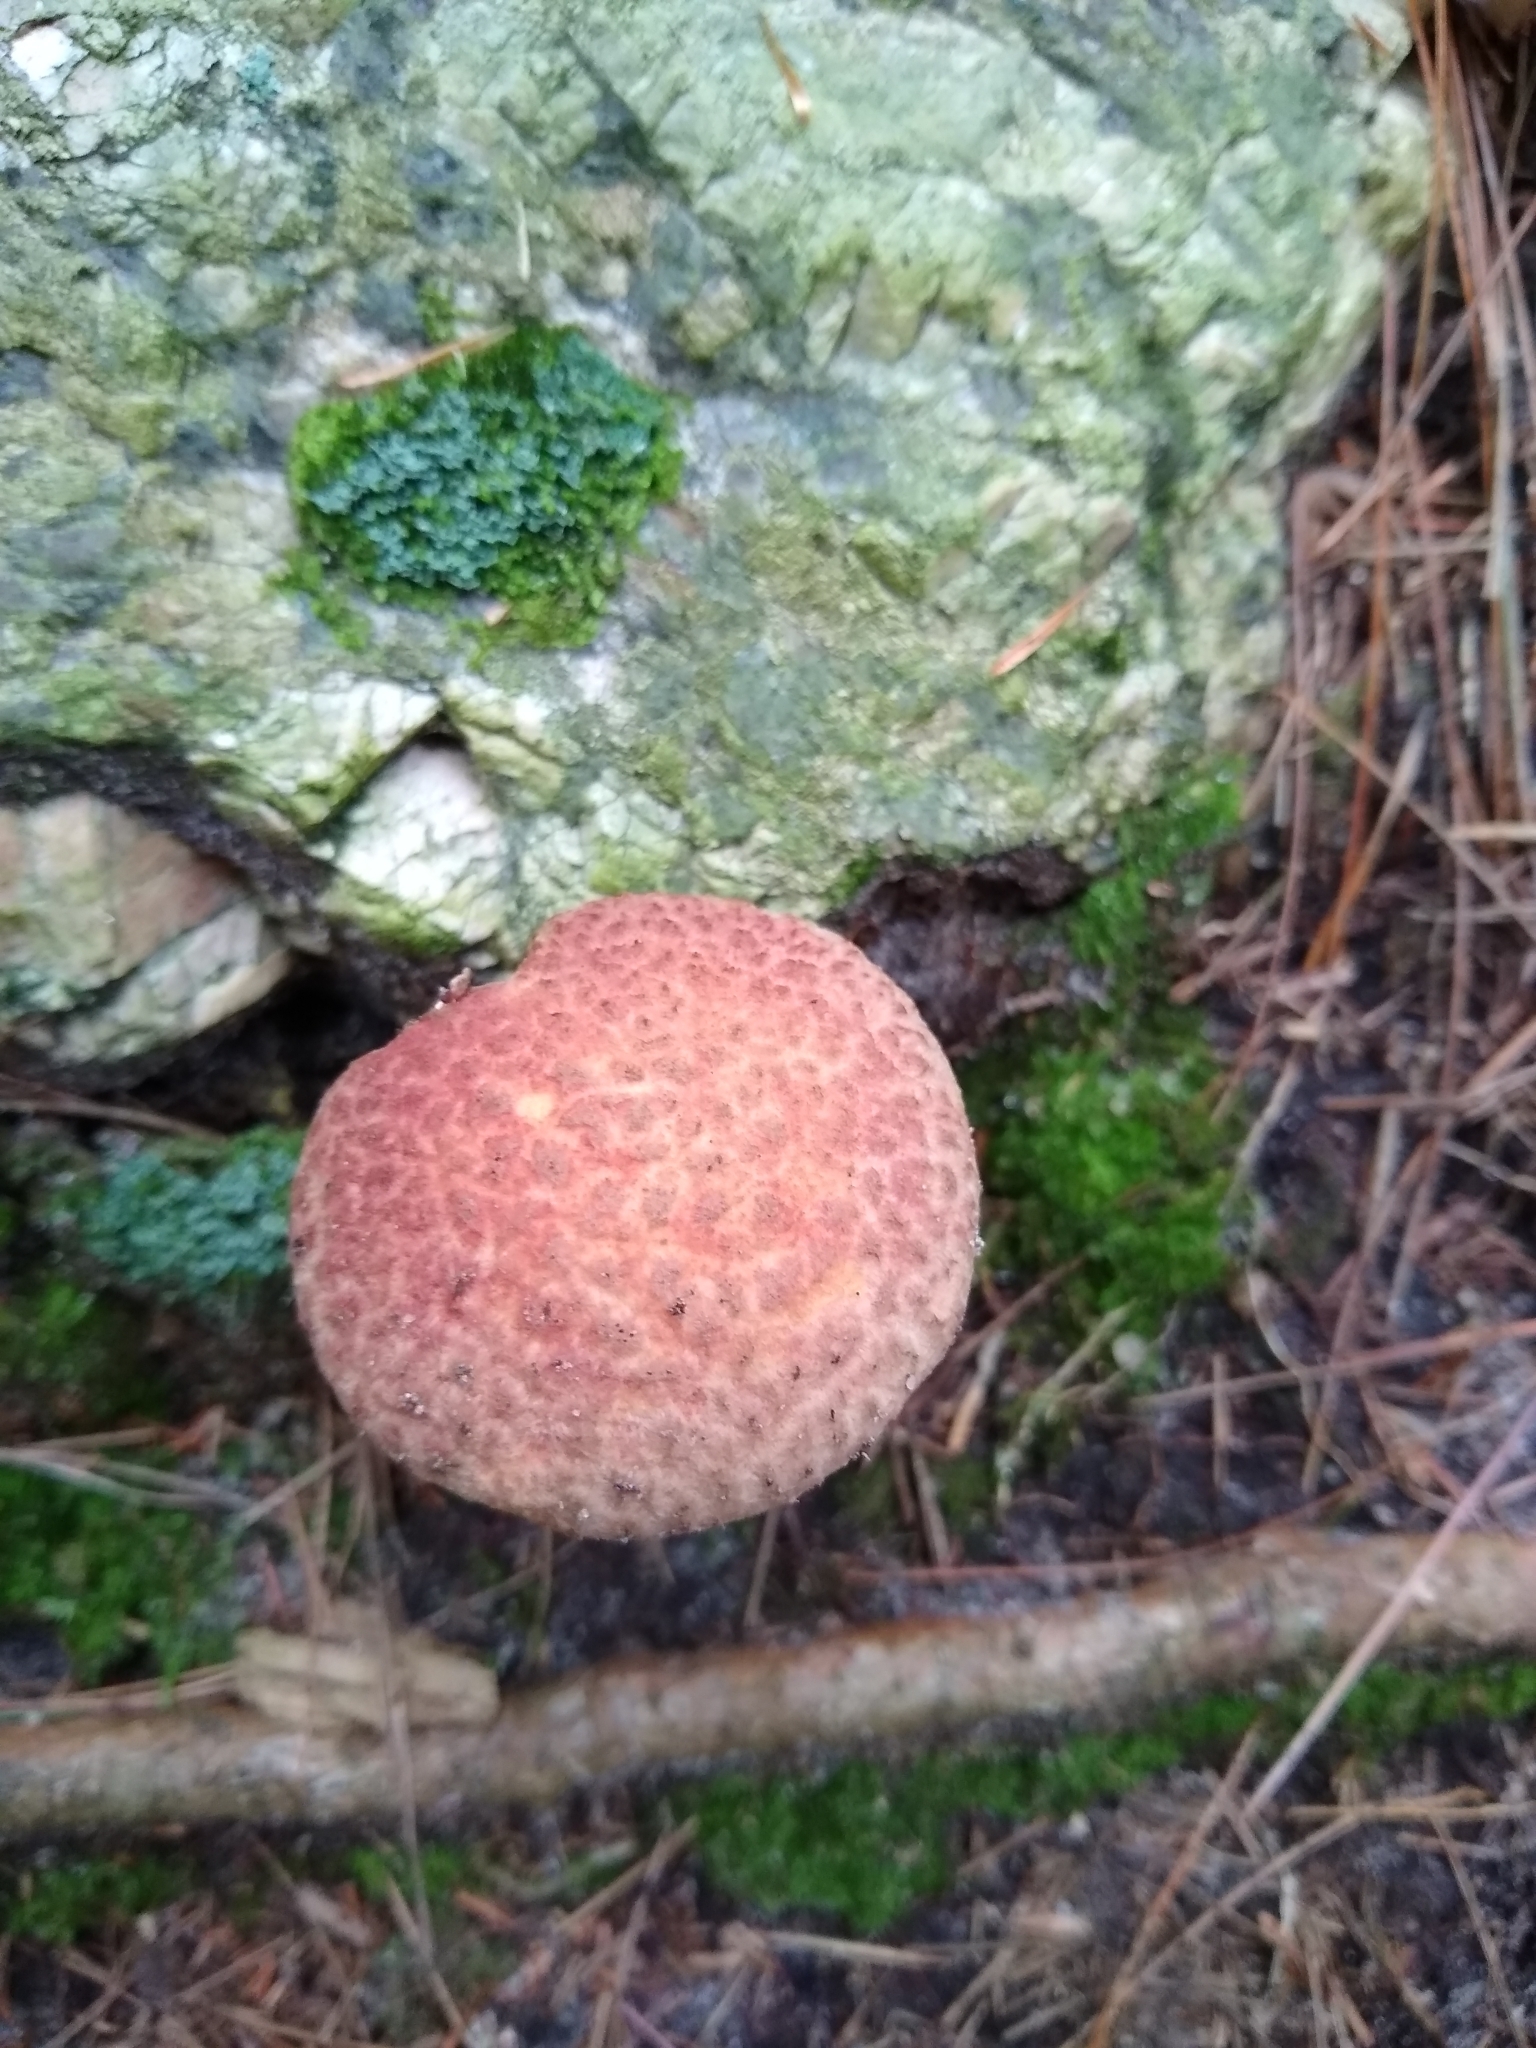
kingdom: Fungi
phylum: Basidiomycota
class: Agaricomycetes
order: Boletales
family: Suillaceae
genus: Suillus
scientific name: Suillus spraguei
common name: Painted suillus
